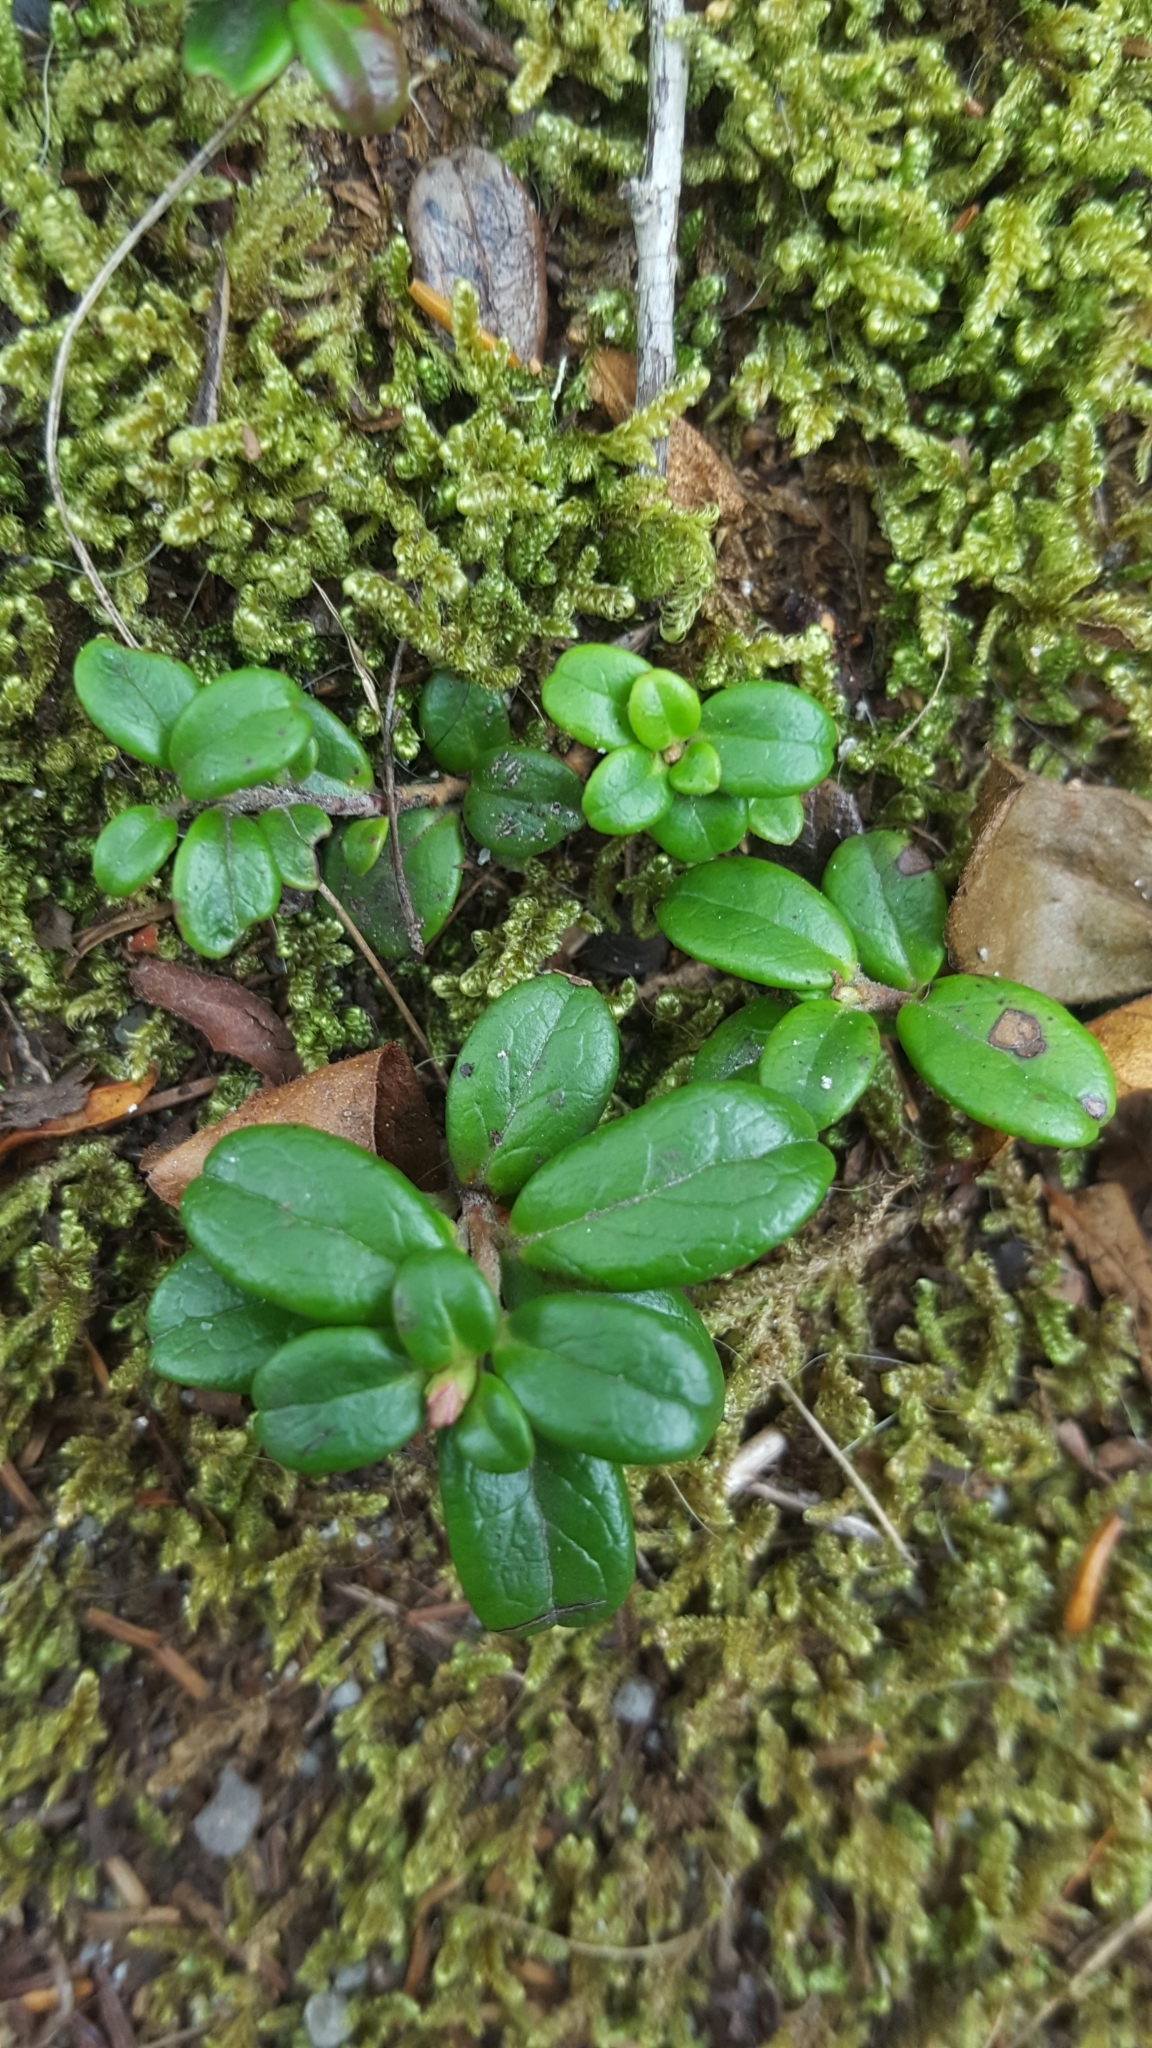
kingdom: Plantae
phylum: Tracheophyta
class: Magnoliopsida
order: Ericales
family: Ericaceae
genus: Vaccinium
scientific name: Vaccinium vitis-idaea
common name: Cowberry
